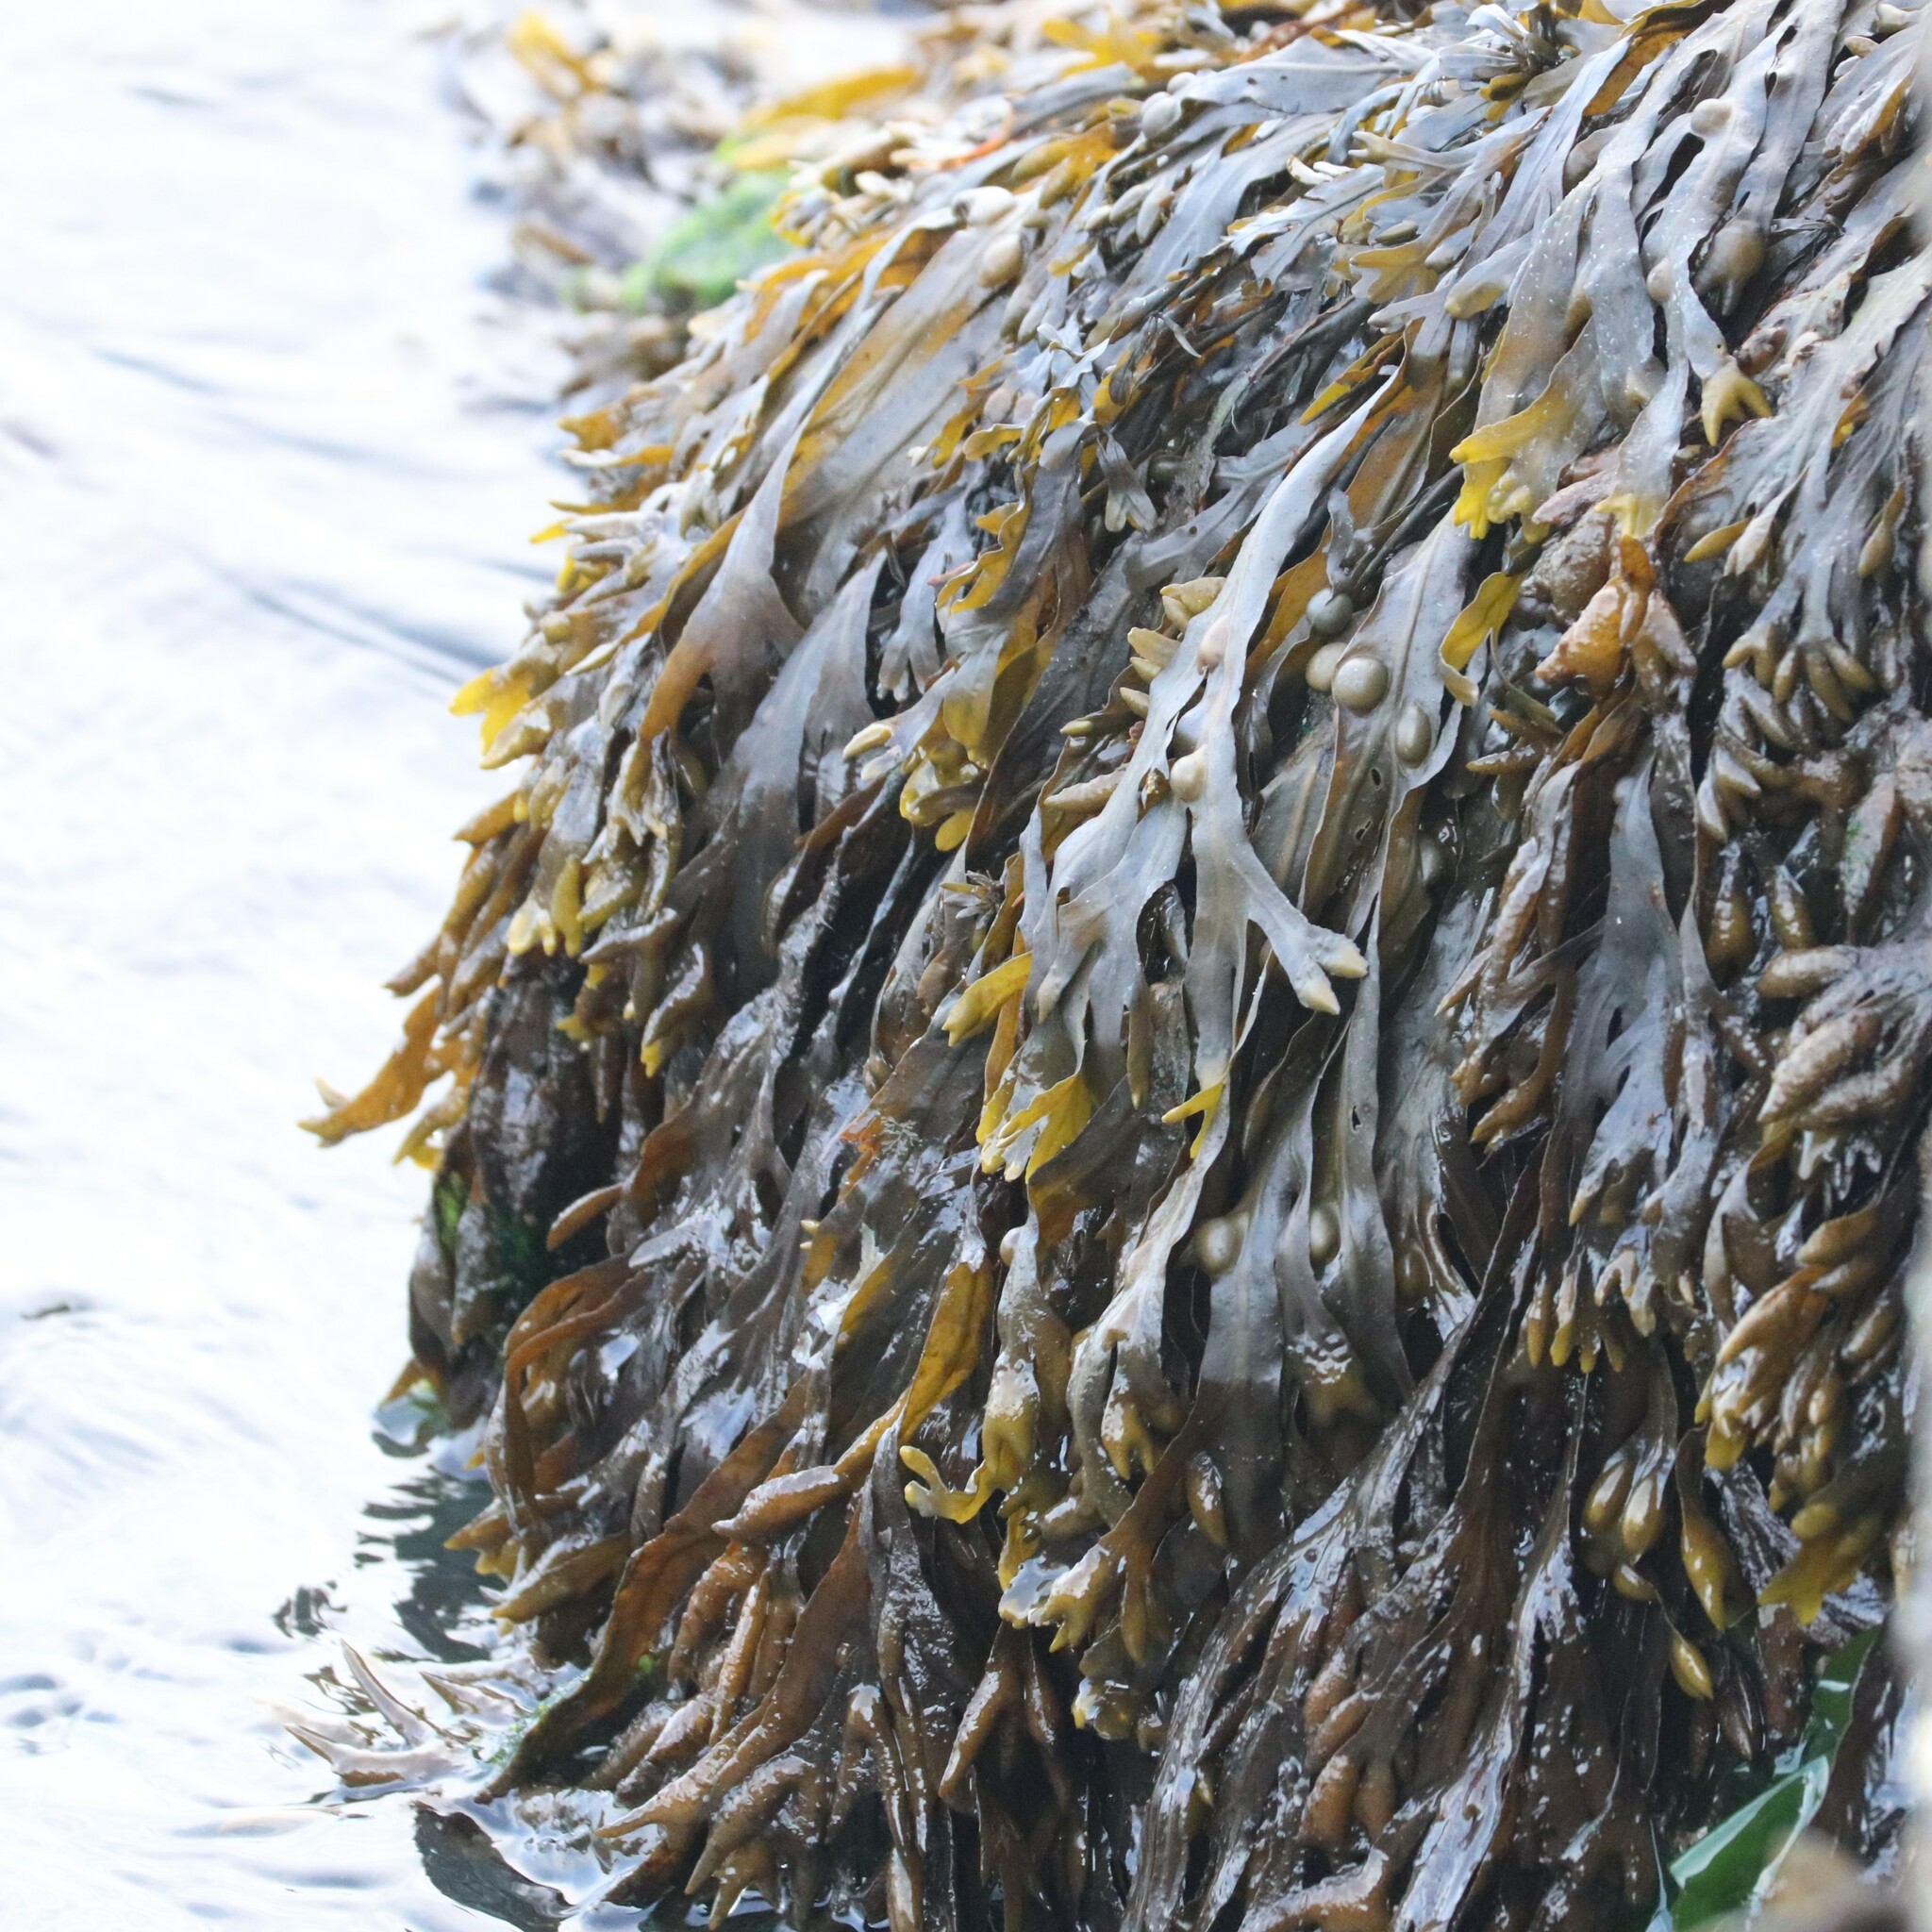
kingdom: Chromista
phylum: Ochrophyta
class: Phaeophyceae
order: Fucales
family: Fucaceae
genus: Fucus
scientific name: Fucus vesiculosus
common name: Bladder wrack
